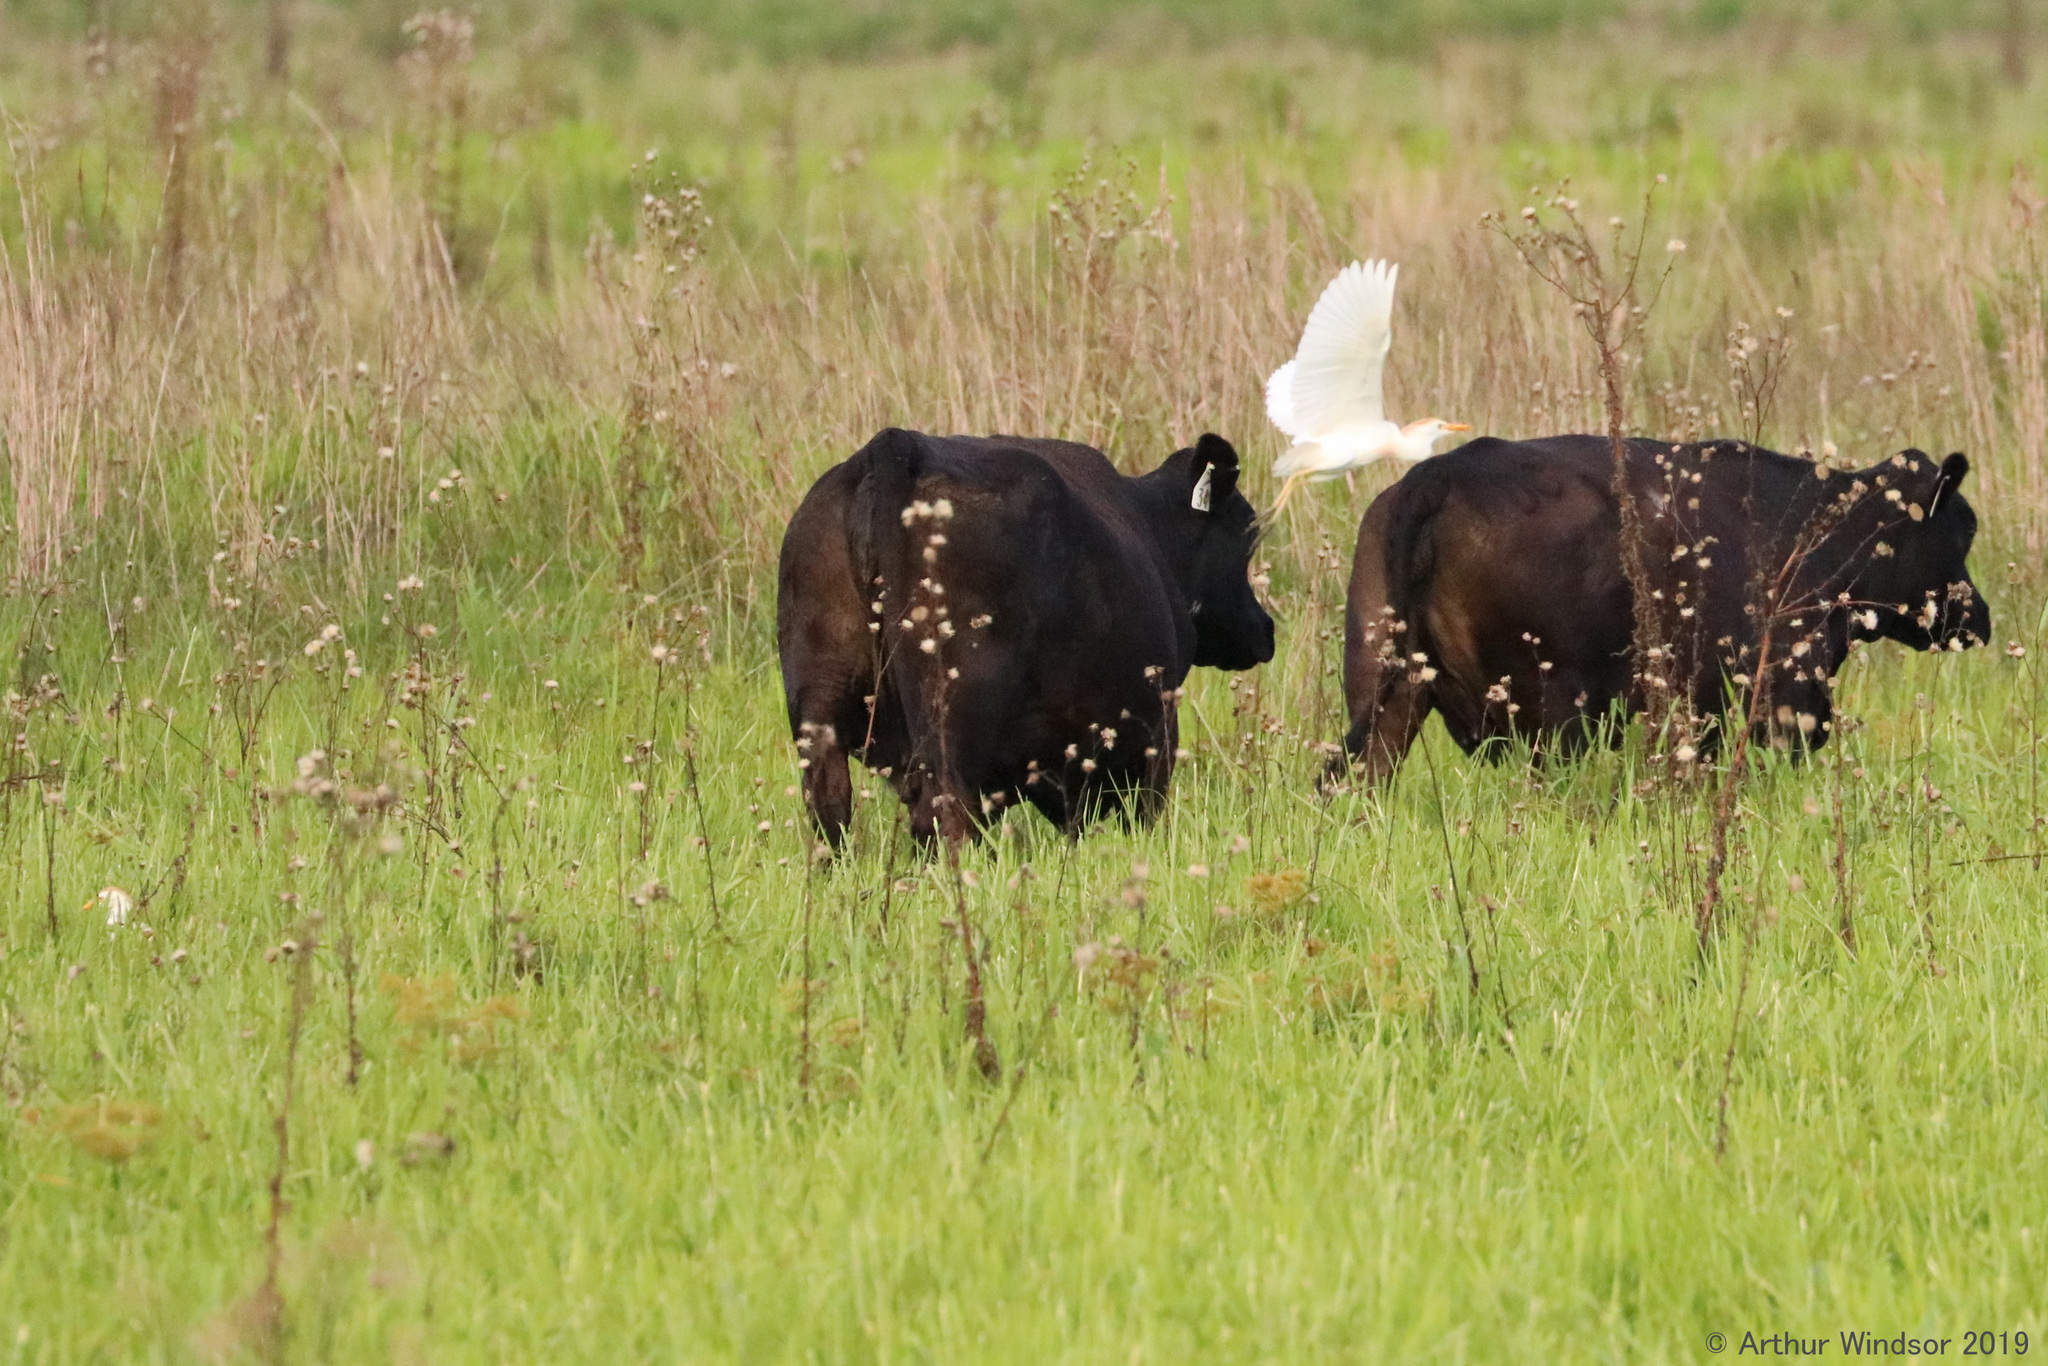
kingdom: Animalia
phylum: Chordata
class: Aves
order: Pelecaniformes
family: Ardeidae
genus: Bubulcus
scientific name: Bubulcus ibis
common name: Cattle egret
